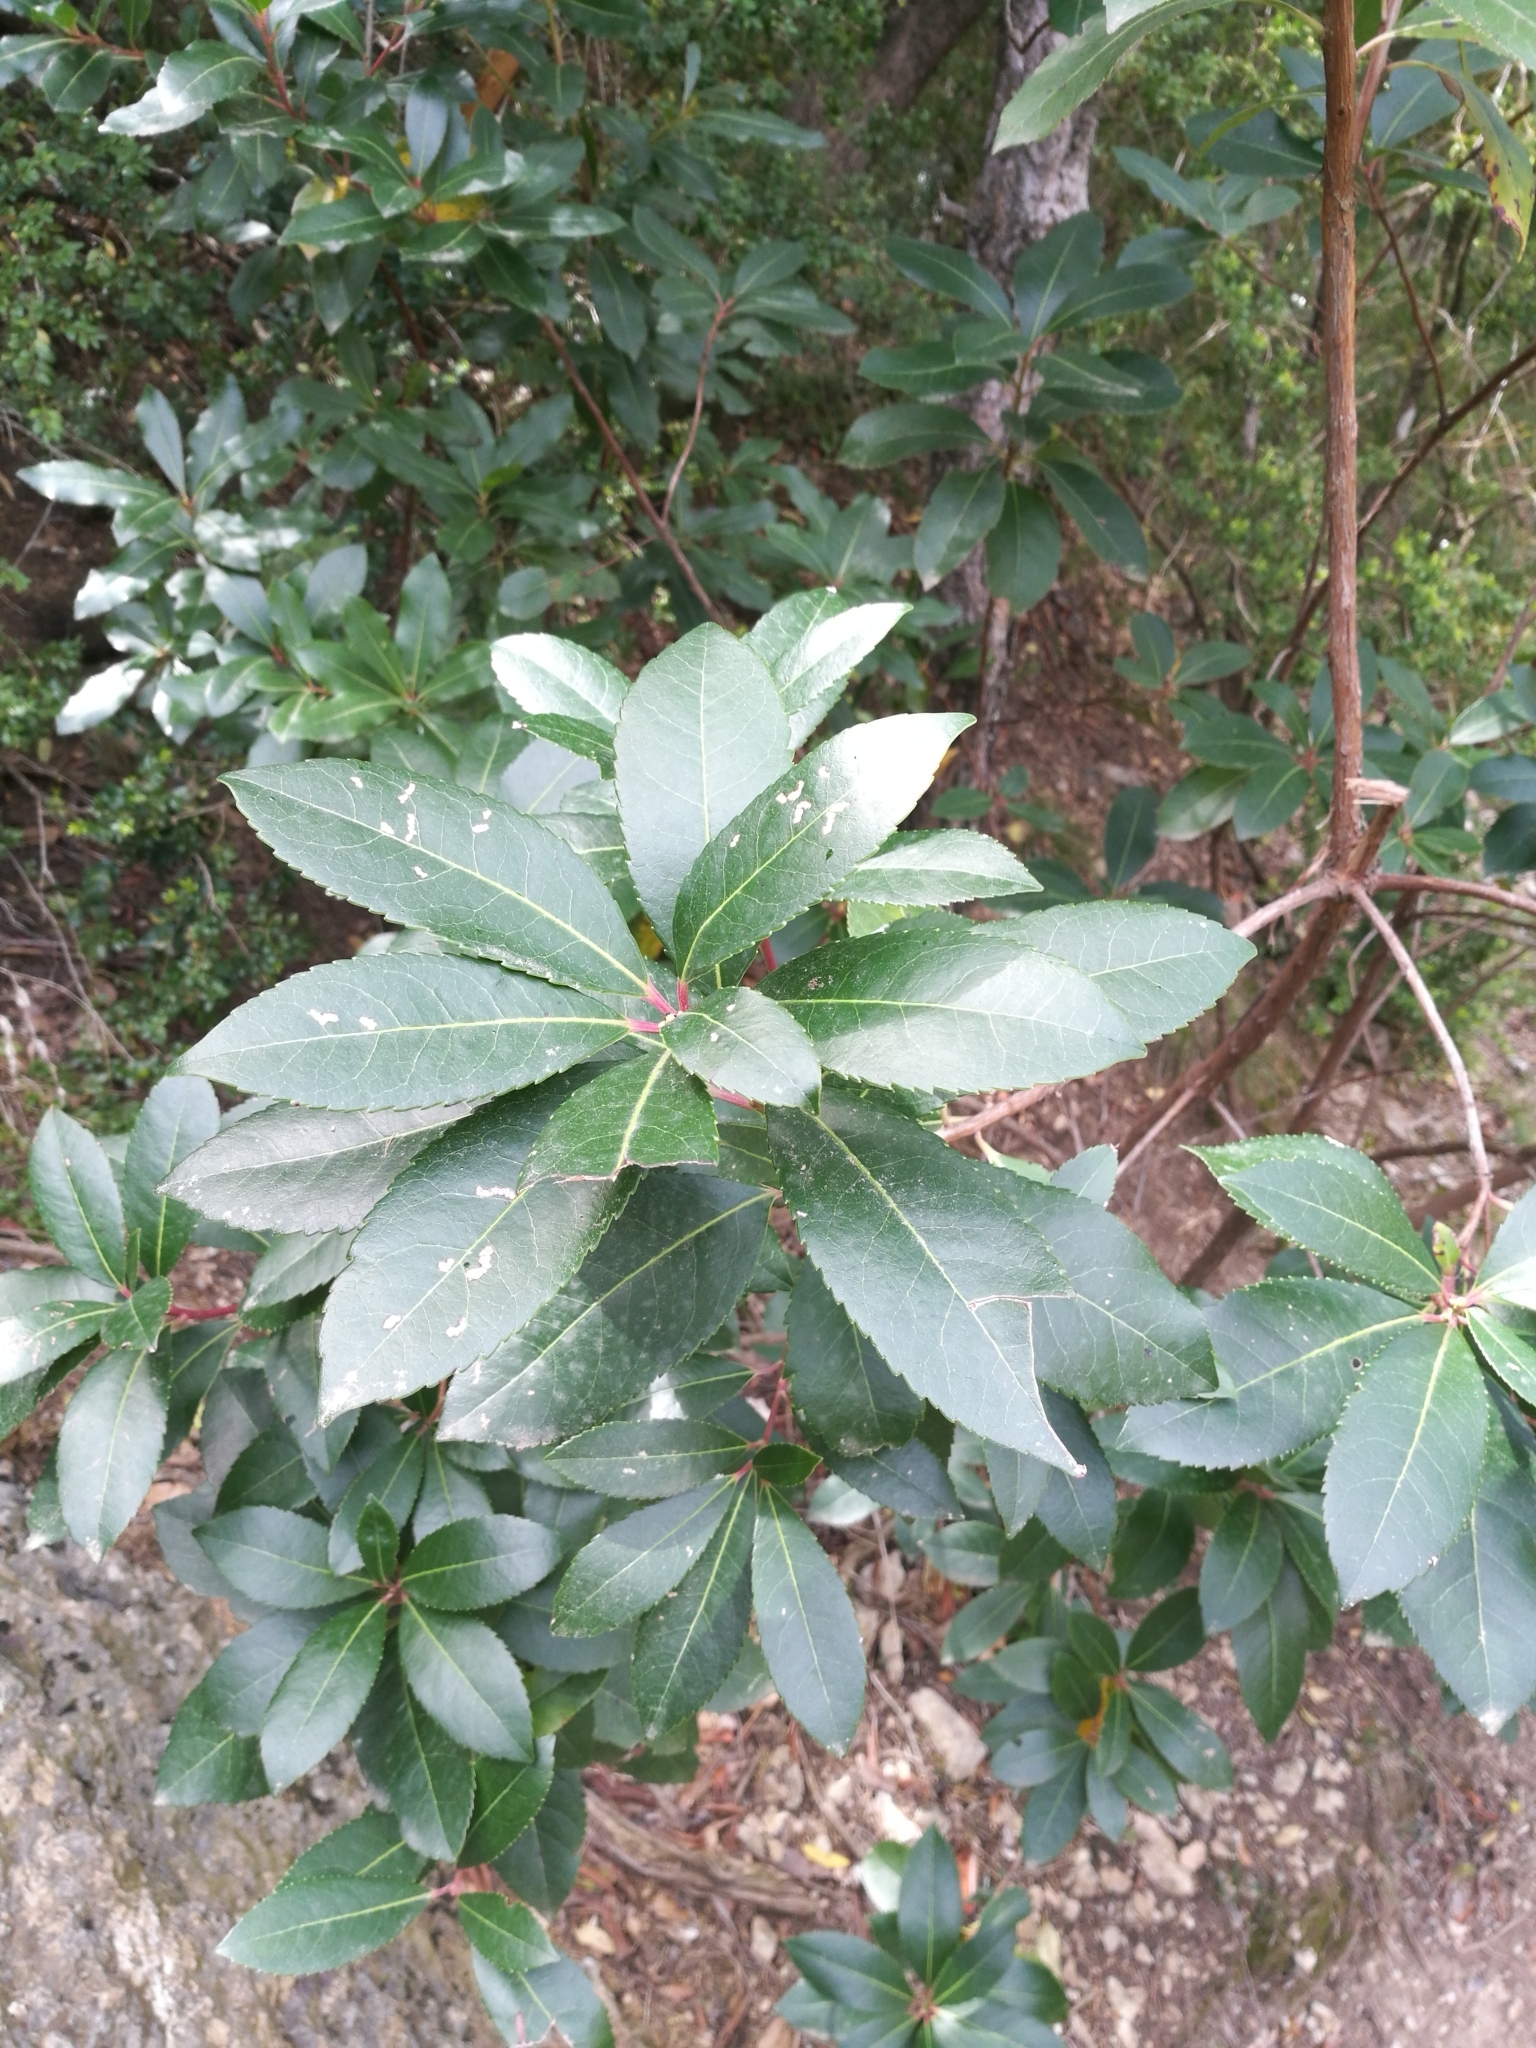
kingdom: Plantae
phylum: Tracheophyta
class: Magnoliopsida
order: Ericales
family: Ericaceae
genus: Arbutus
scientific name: Arbutus unedo
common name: Strawberry-tree
